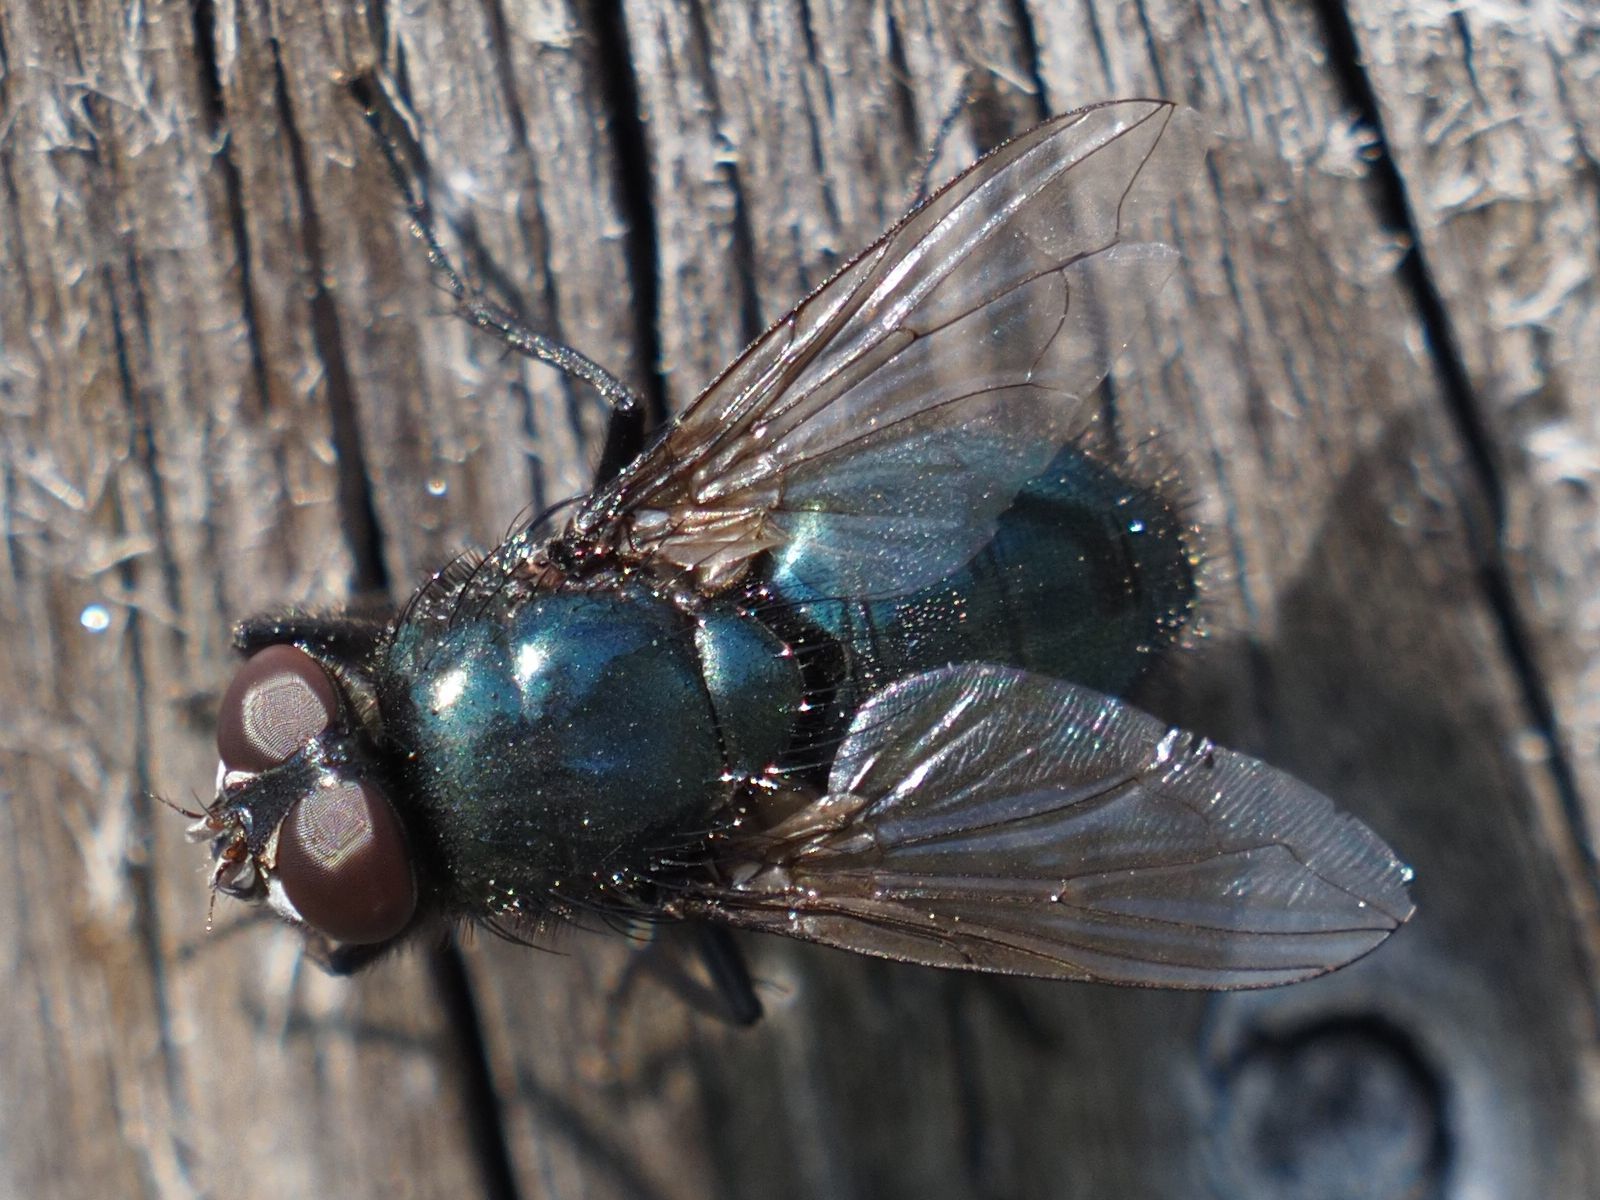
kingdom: Animalia
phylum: Arthropoda
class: Insecta
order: Diptera
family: Calliphoridae
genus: Protophormia
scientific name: Protophormia terraenovae
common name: Blackbottle
